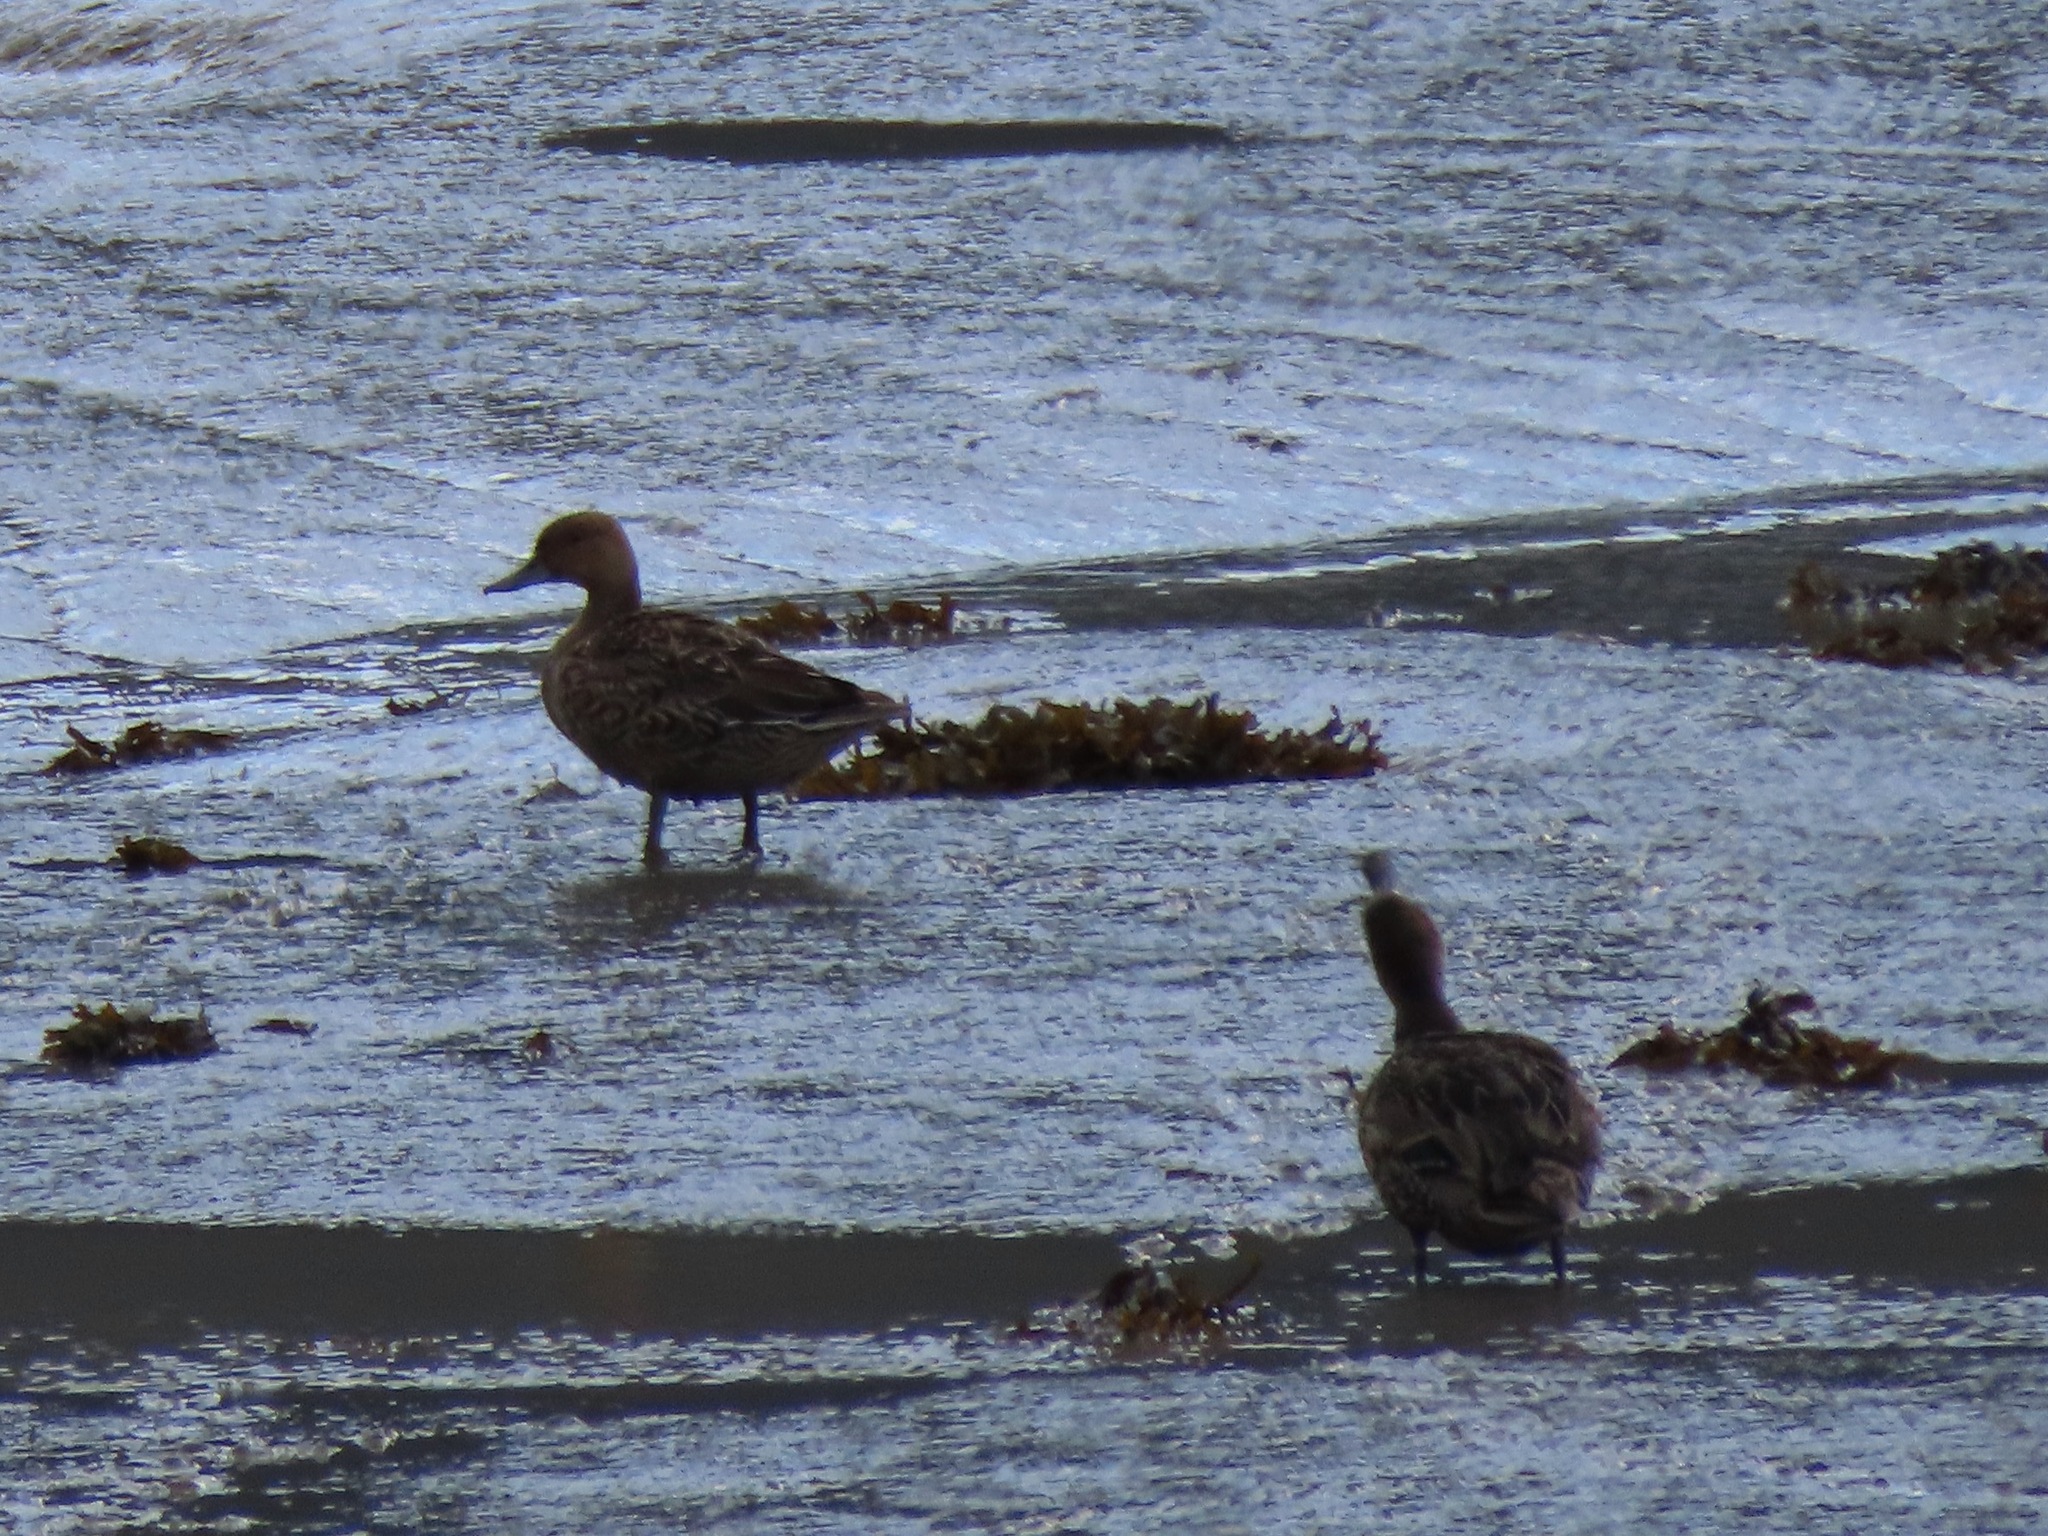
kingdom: Animalia
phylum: Chordata
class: Aves
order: Anseriformes
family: Anatidae
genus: Anas
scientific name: Anas acuta
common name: Northern pintail
